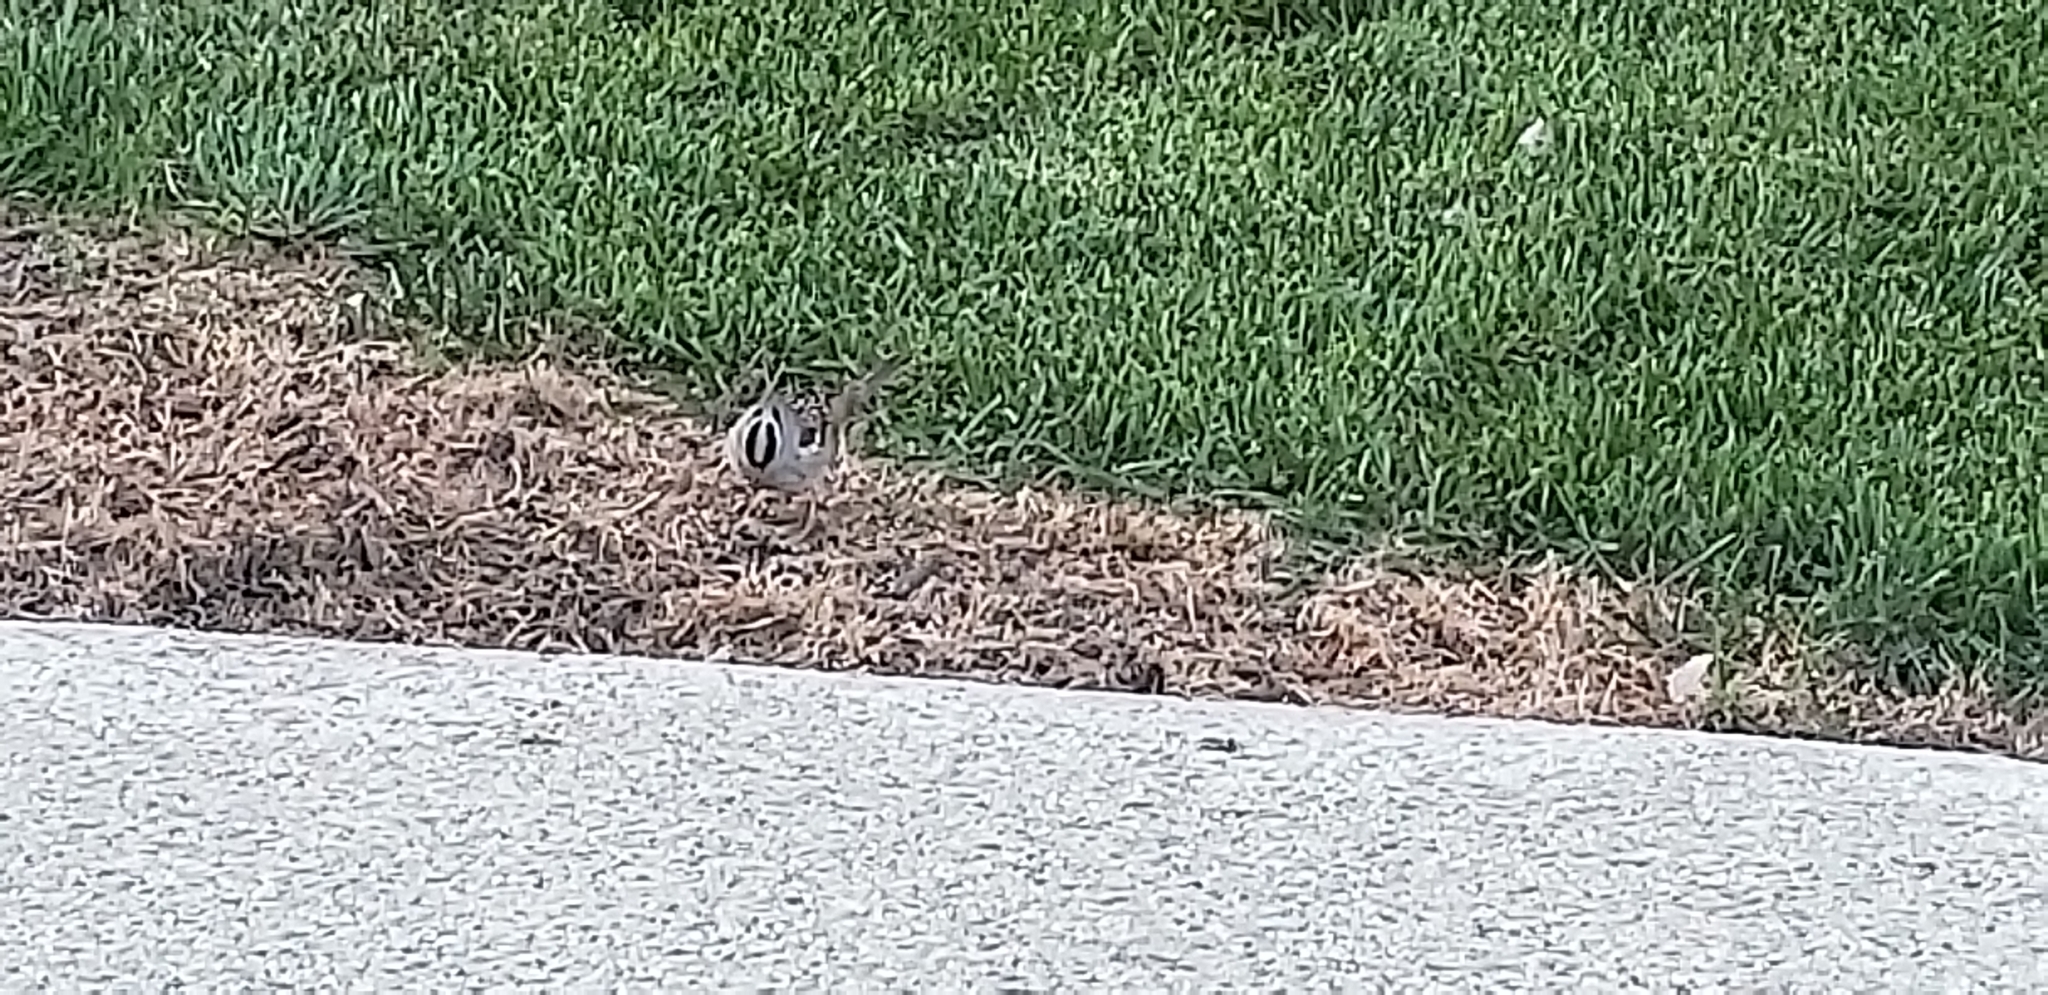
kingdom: Animalia
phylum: Chordata
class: Aves
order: Passeriformes
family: Passerellidae
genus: Zonotrichia
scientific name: Zonotrichia leucophrys
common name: White-crowned sparrow
